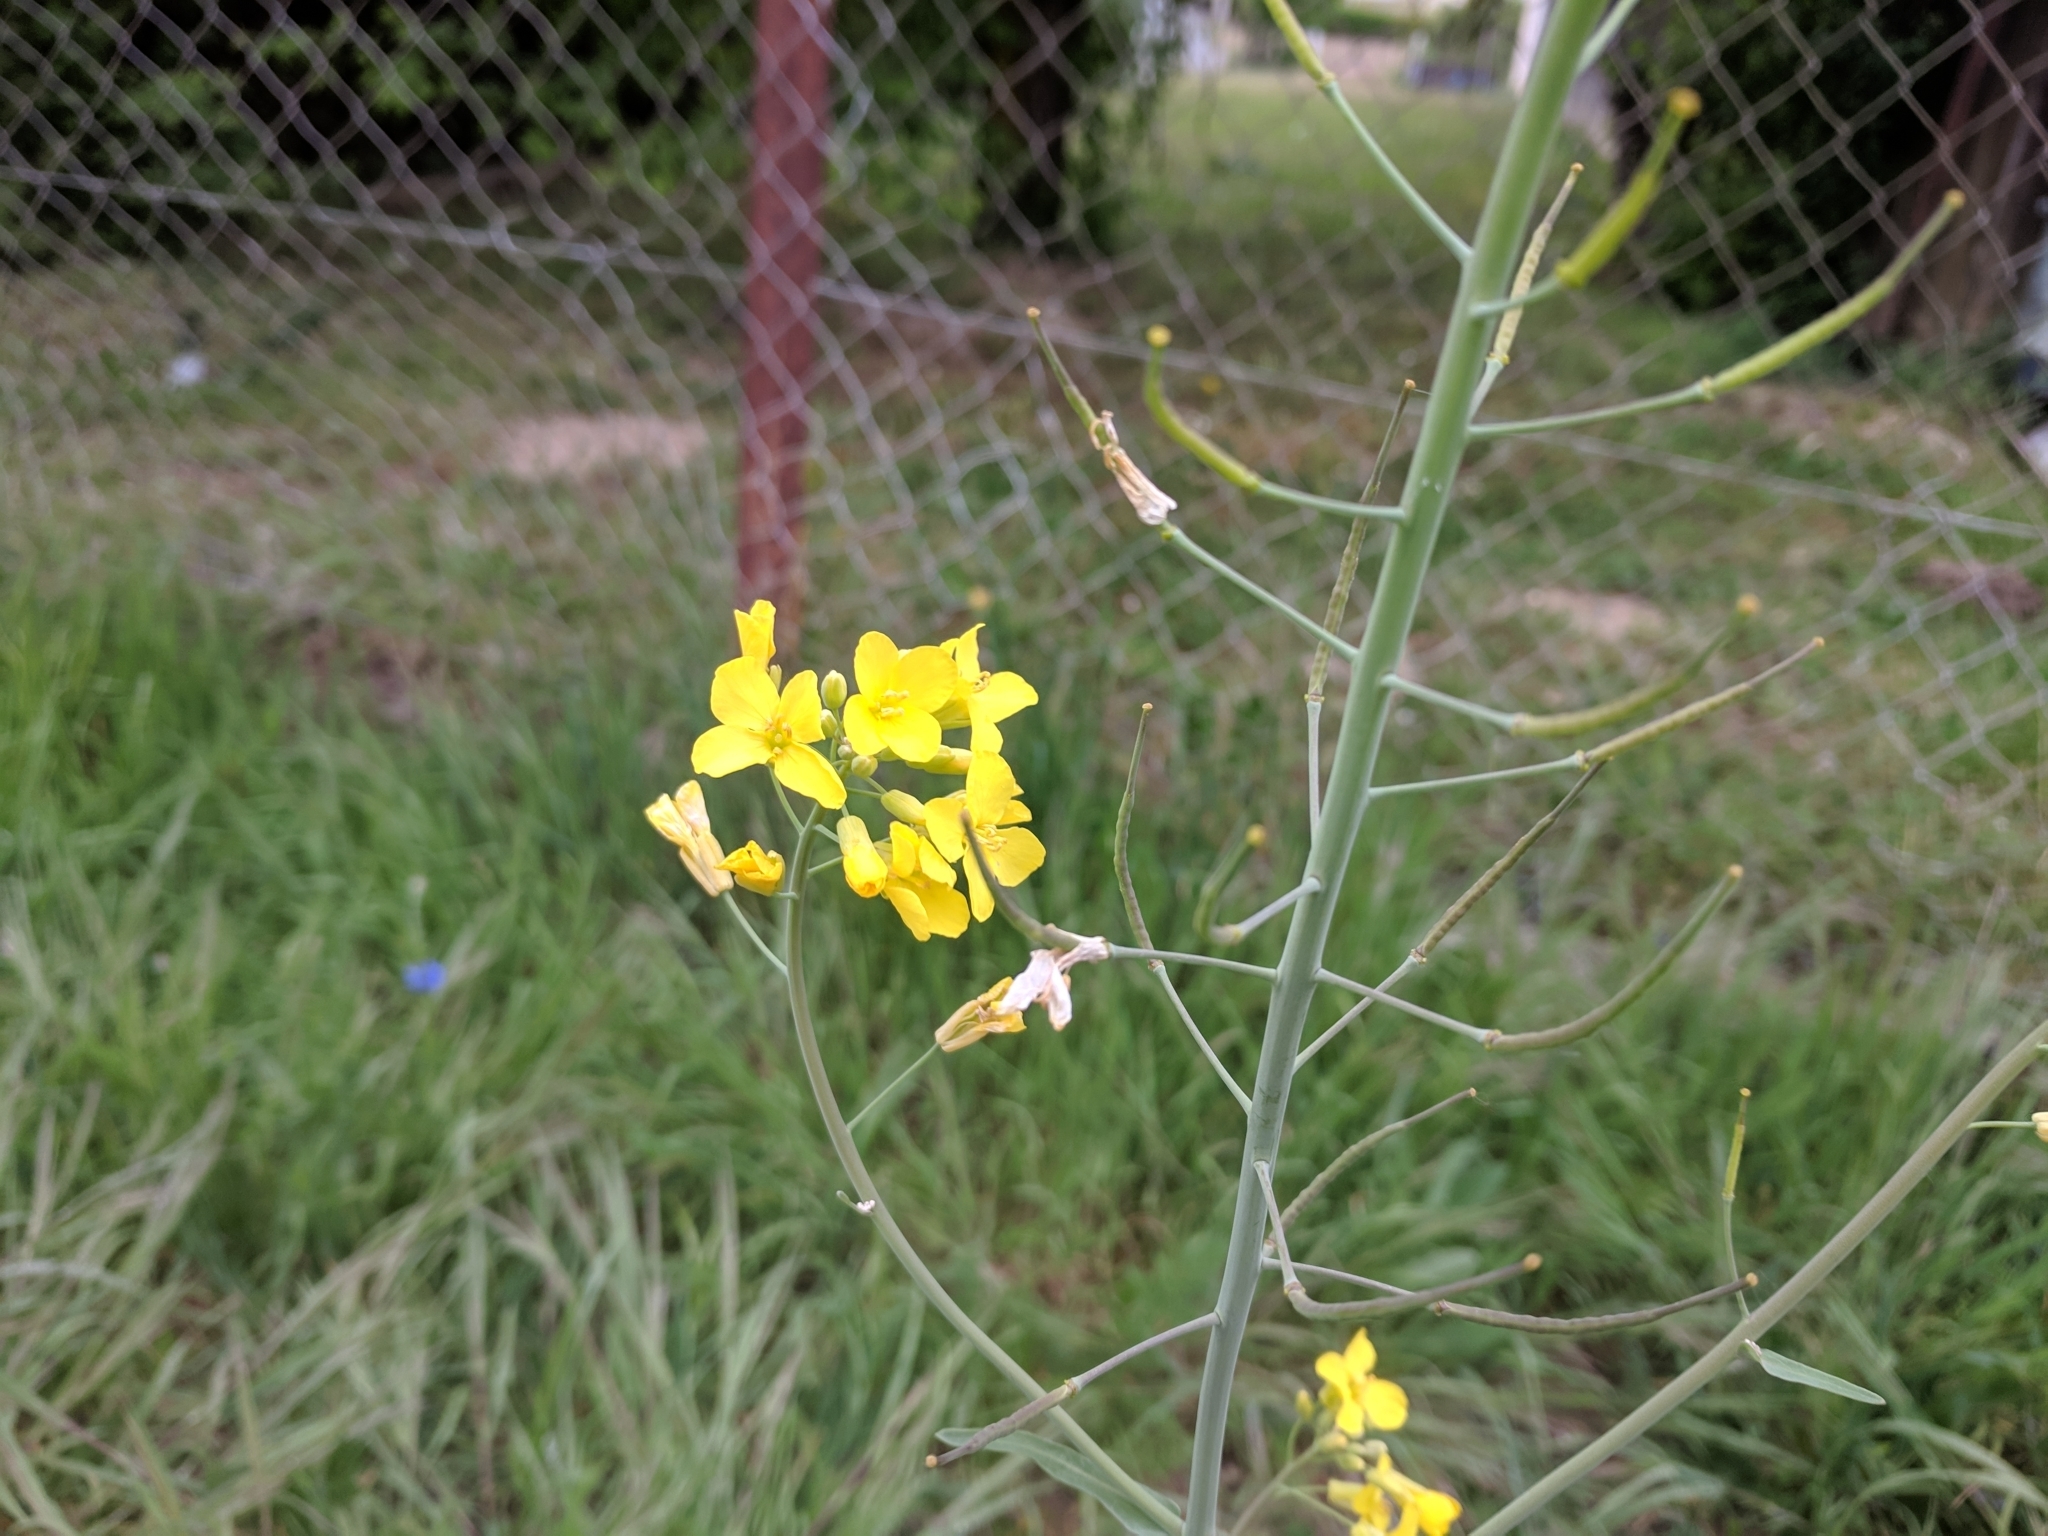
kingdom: Plantae
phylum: Tracheophyta
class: Magnoliopsida
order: Brassicales
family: Brassicaceae
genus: Brassica
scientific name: Brassica napus
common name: Rape
